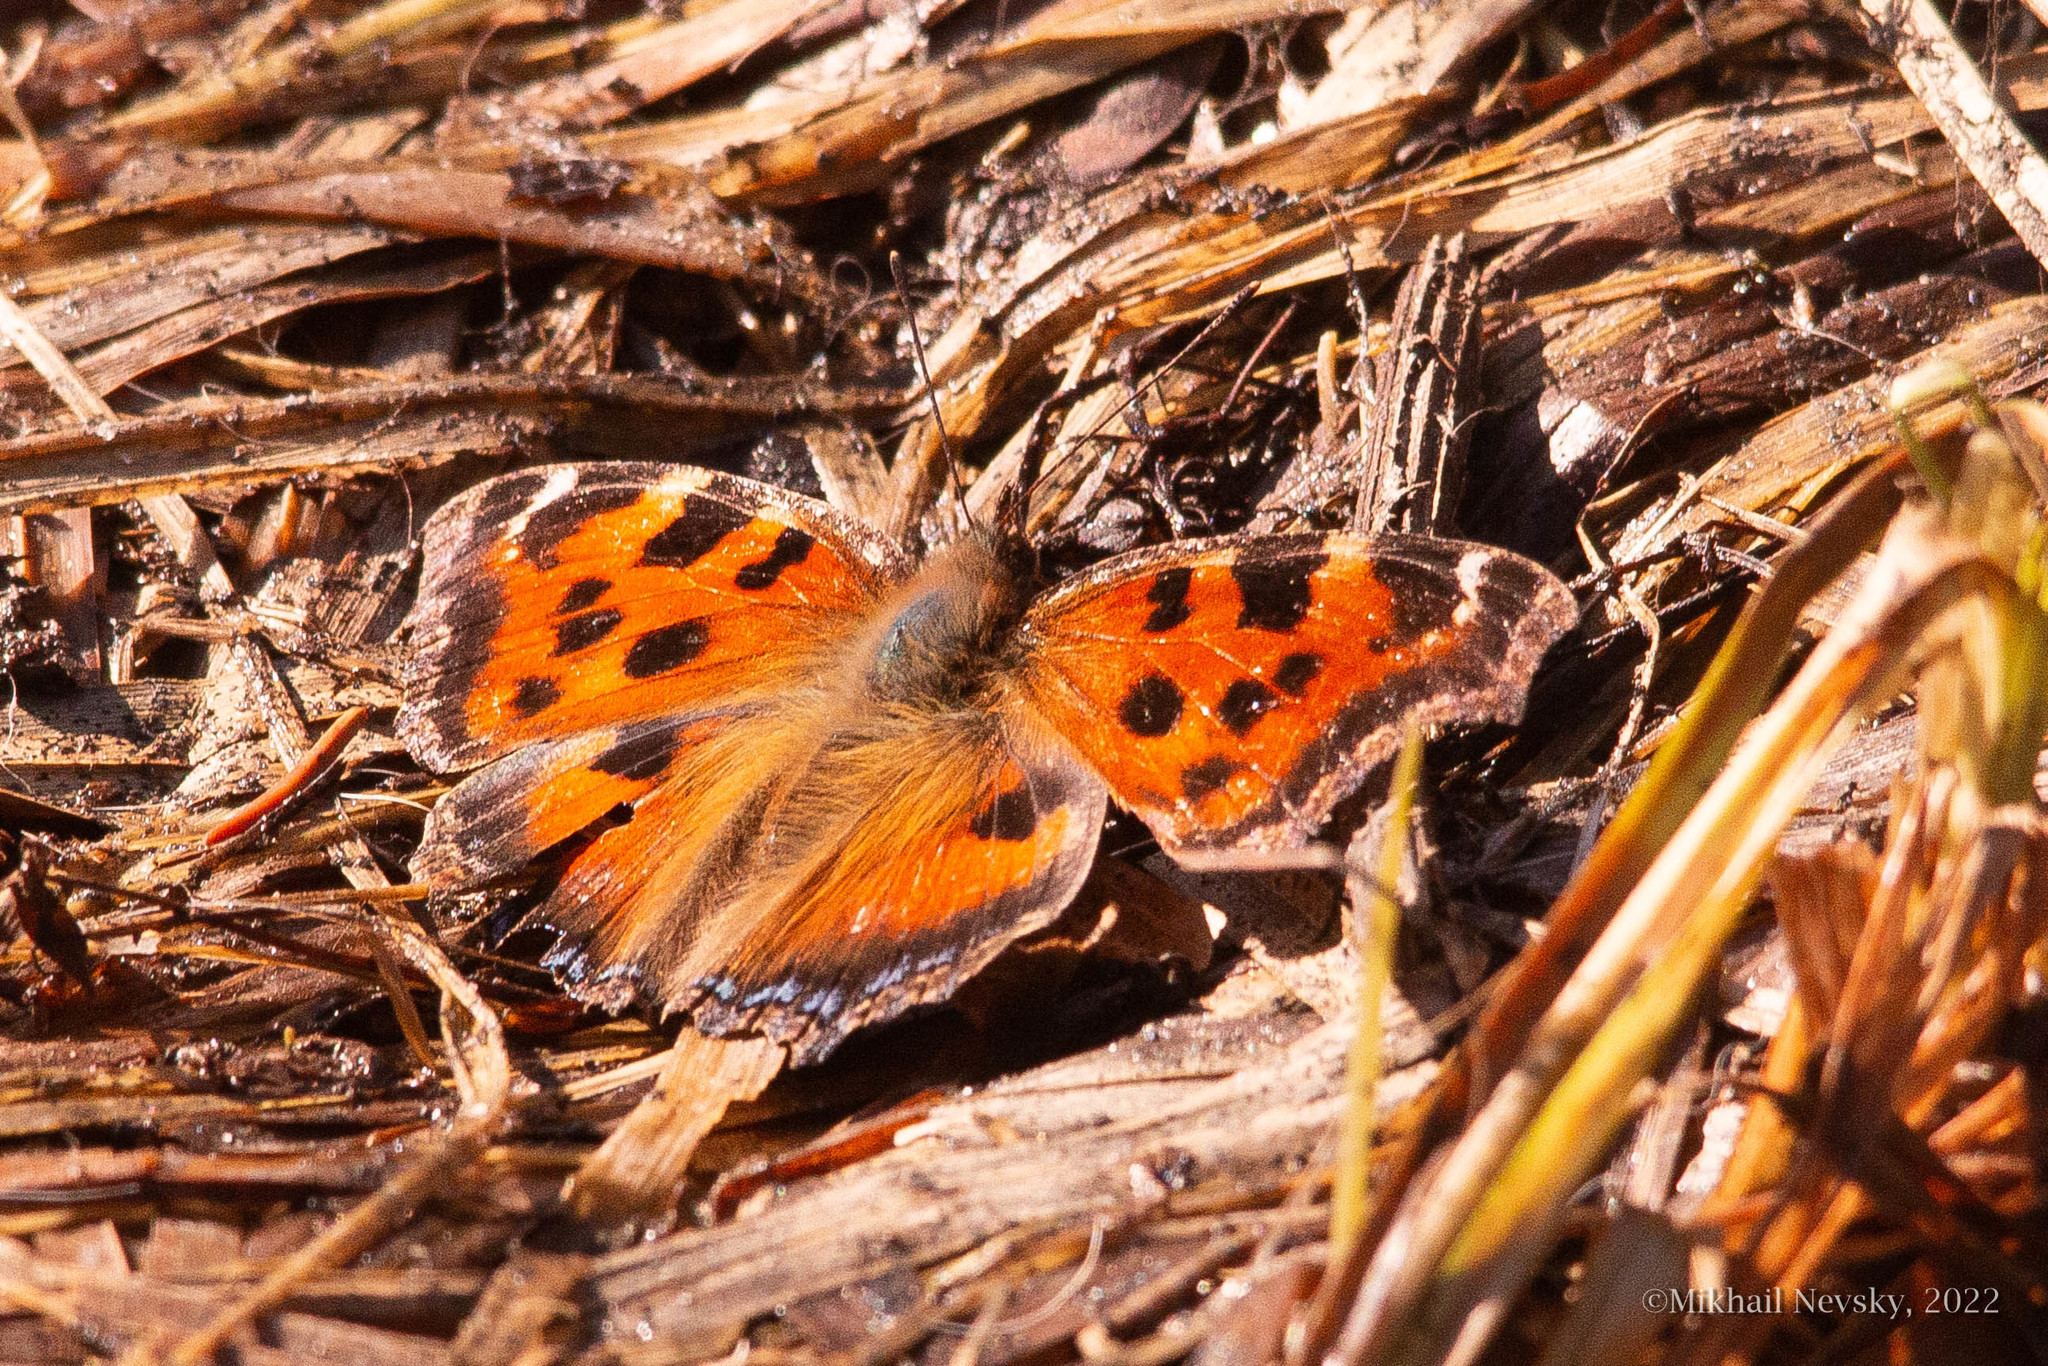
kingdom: Animalia
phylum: Arthropoda
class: Insecta
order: Lepidoptera
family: Nymphalidae
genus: Nymphalis
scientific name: Nymphalis xanthomelas
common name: Scarce tortoiseshell
